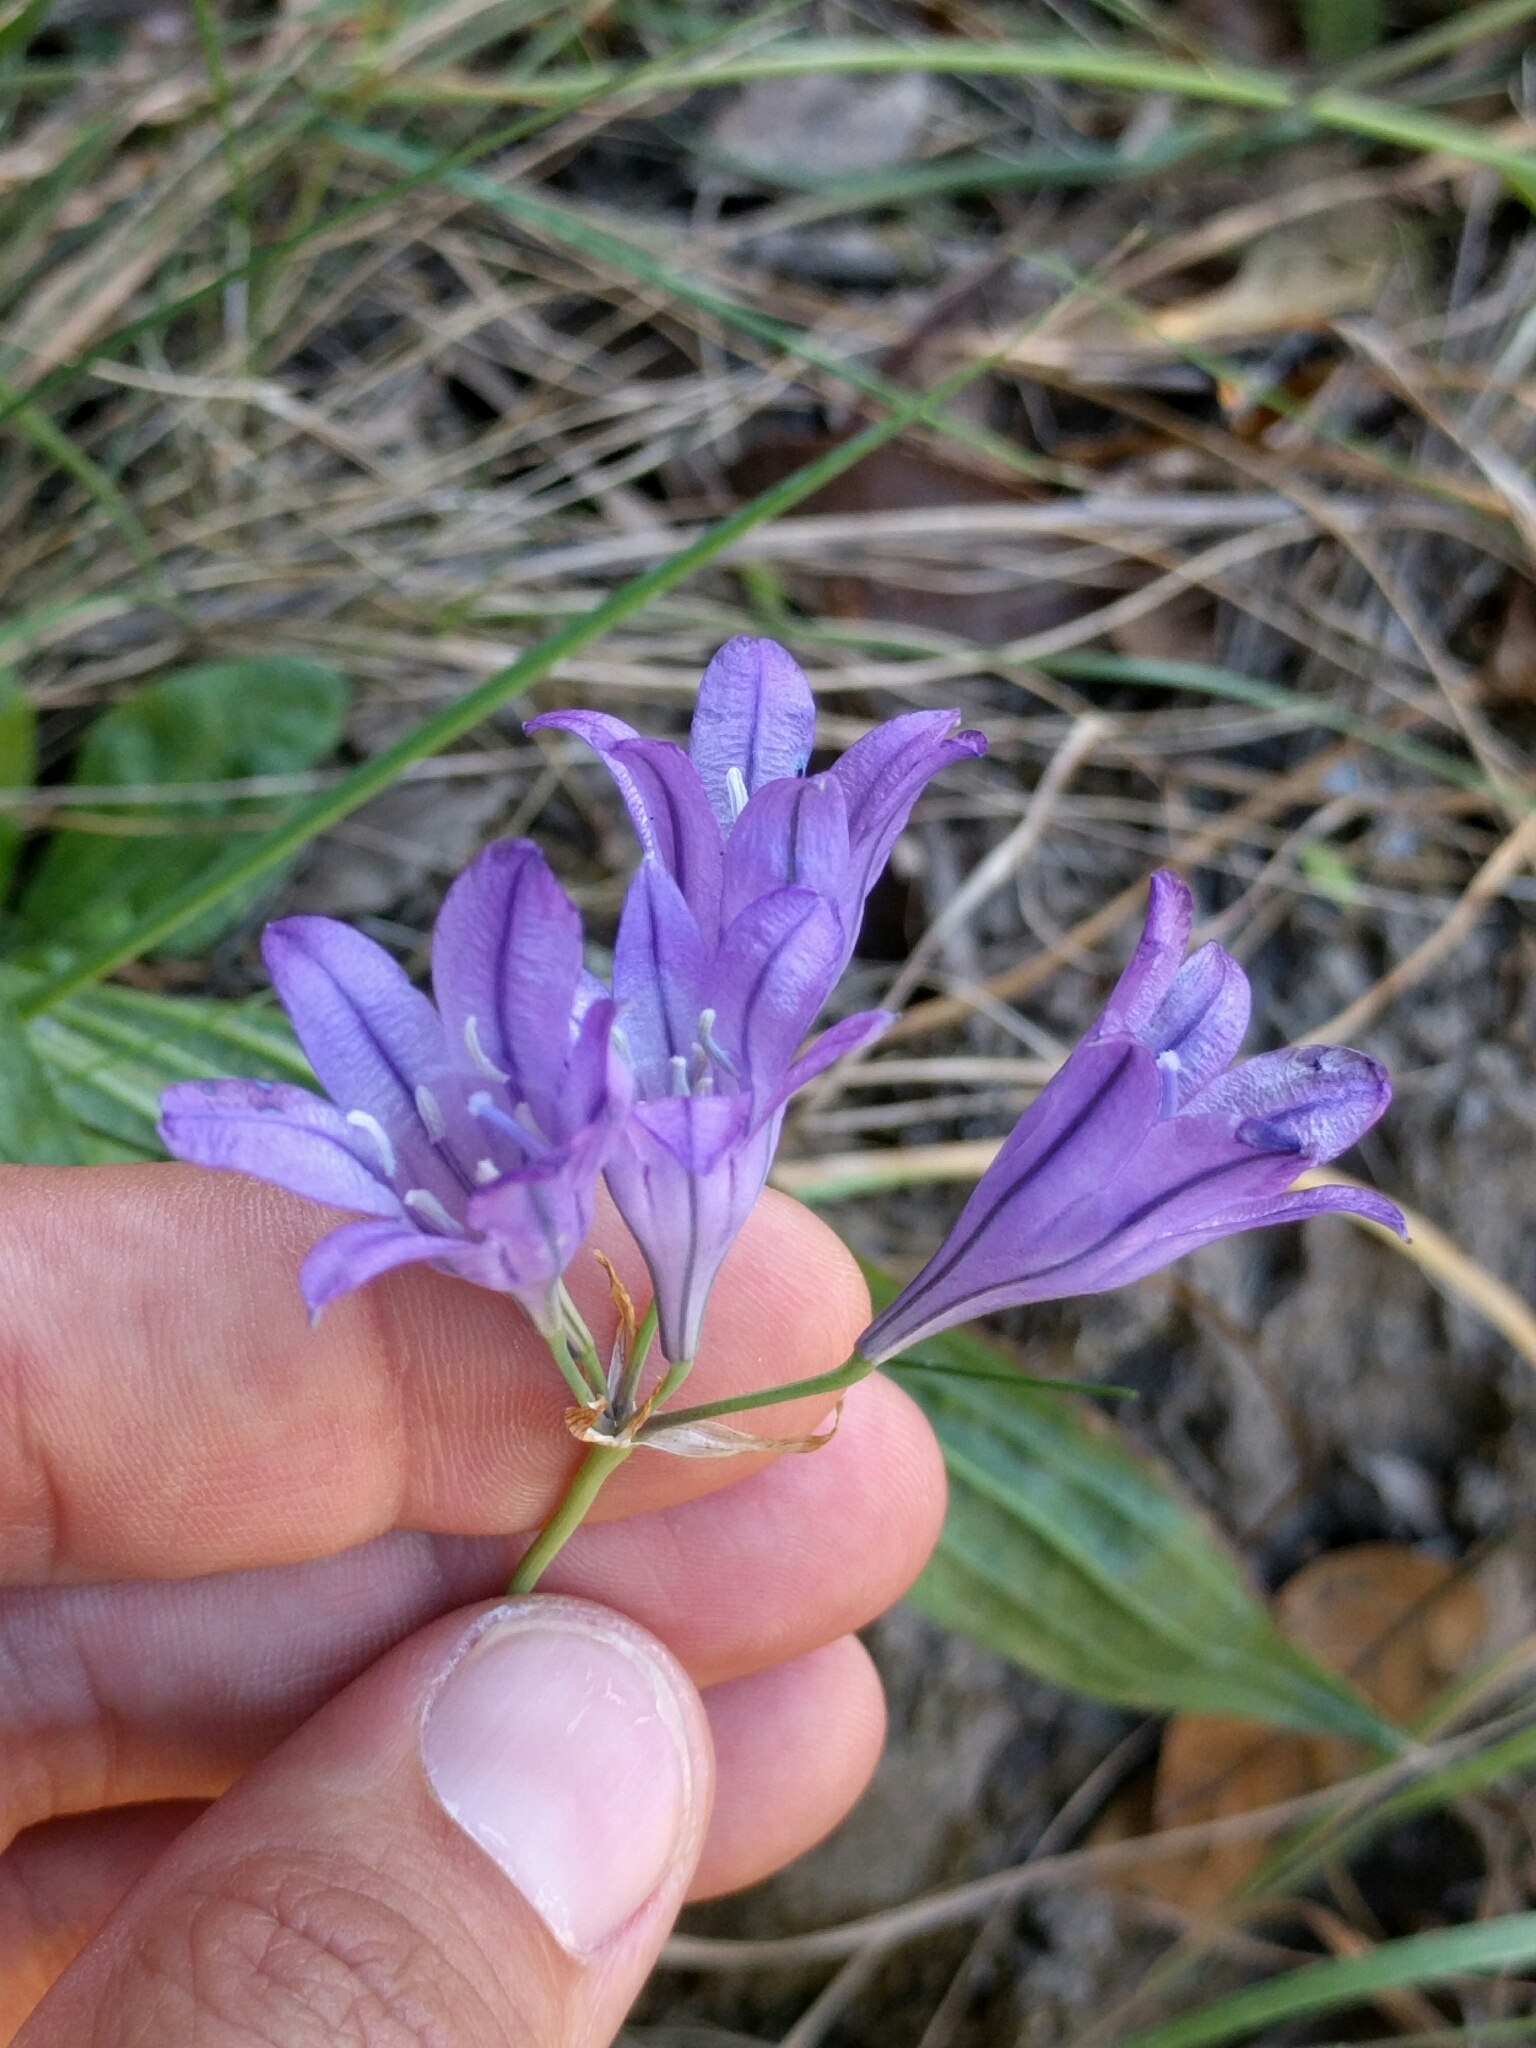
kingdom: Plantae
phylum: Tracheophyta
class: Liliopsida
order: Asparagales
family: Asparagaceae
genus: Triteleia
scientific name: Triteleia laxa
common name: Triplet-lily
